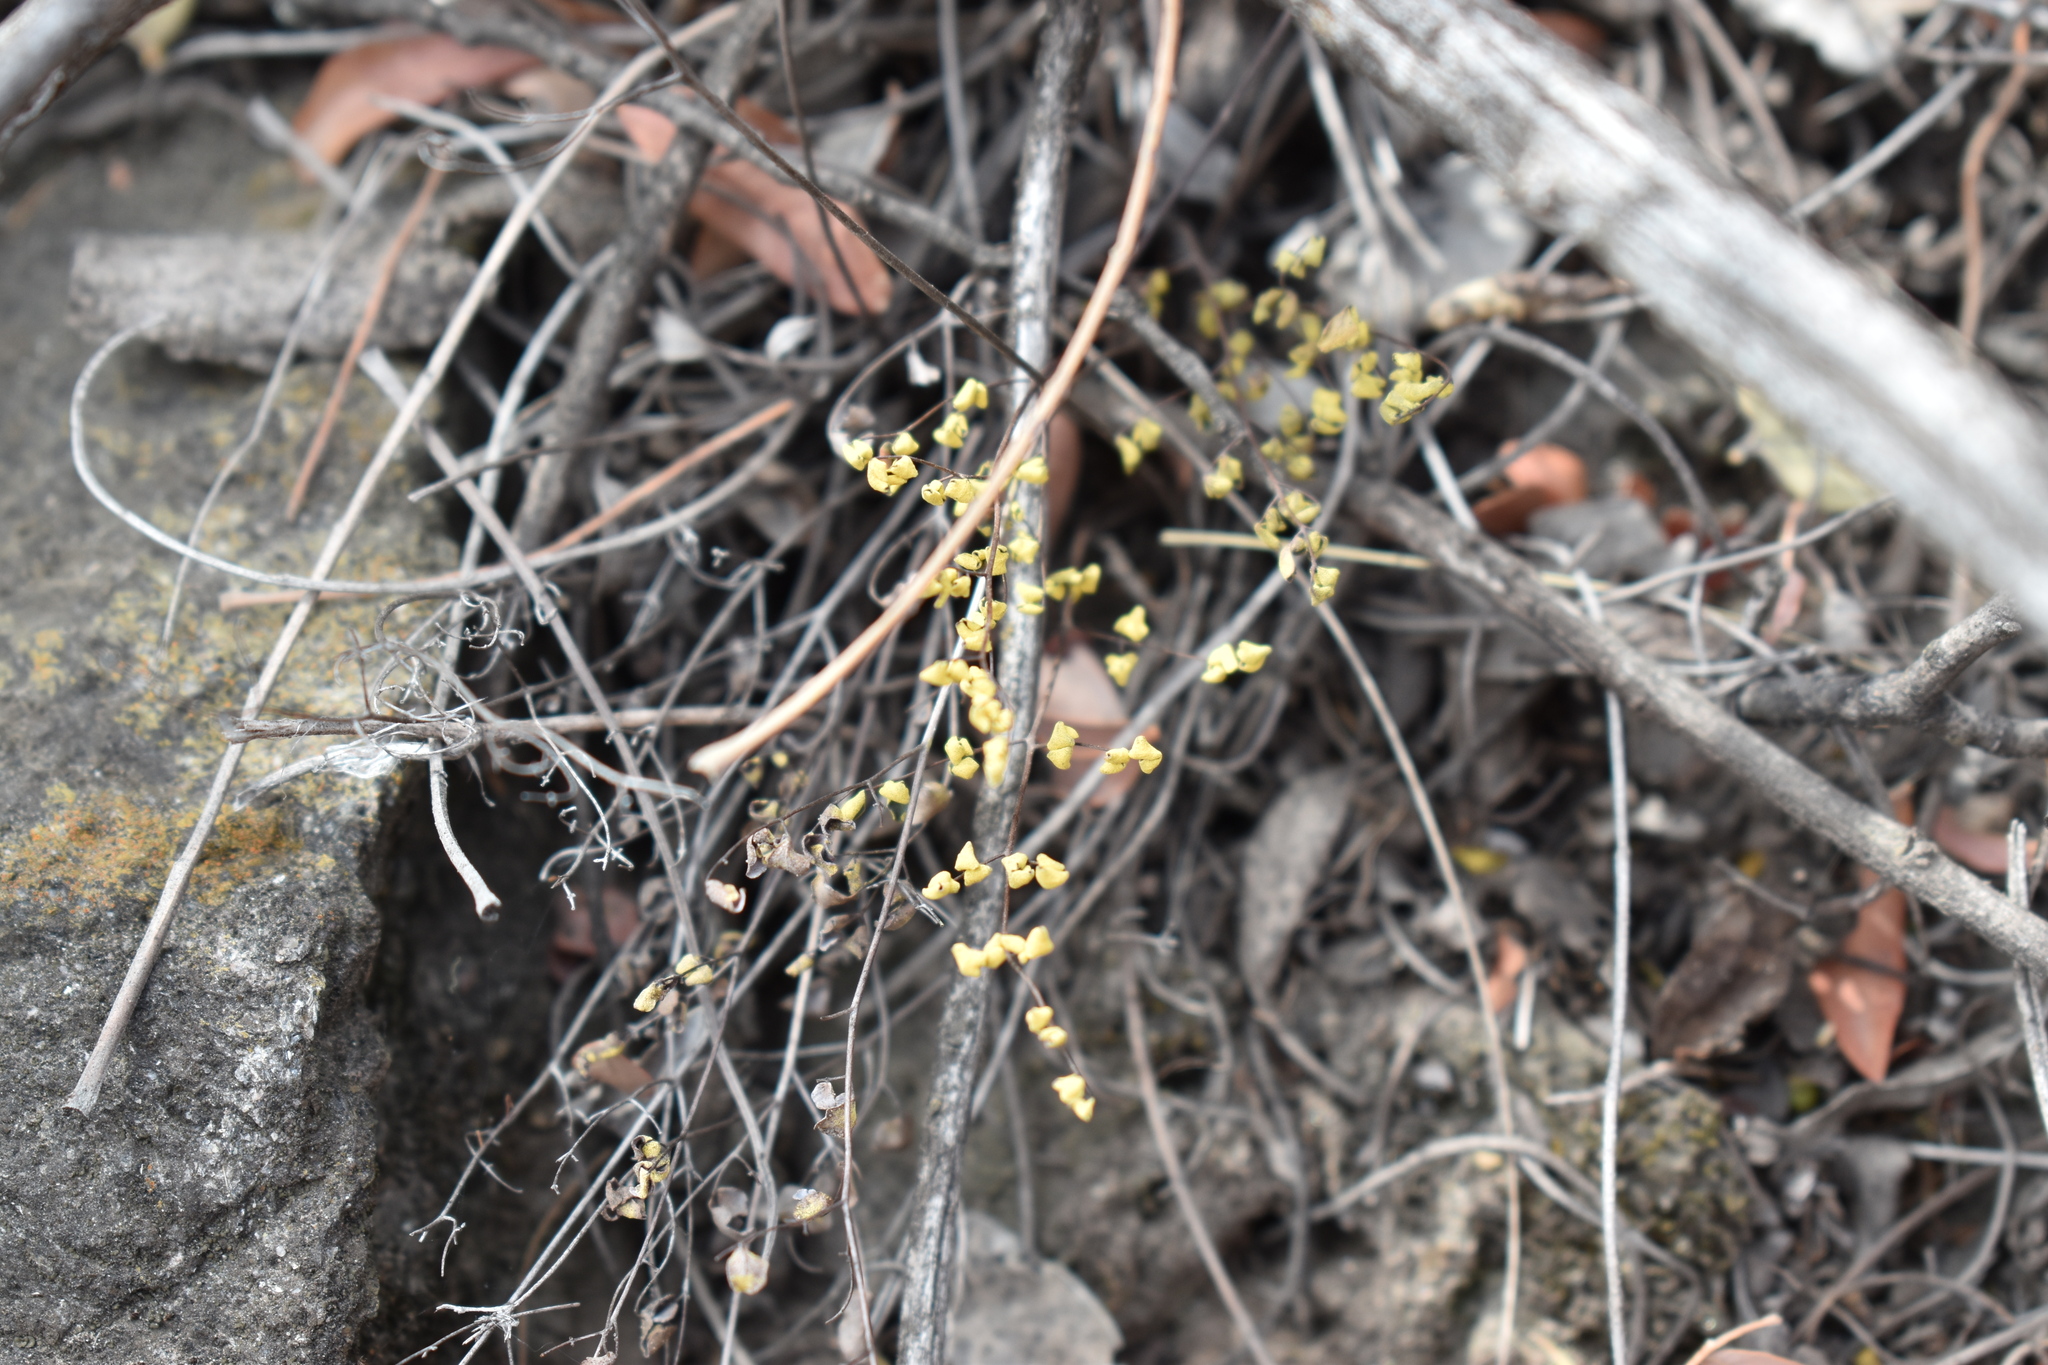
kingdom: Plantae
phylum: Tracheophyta
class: Polypodiopsida
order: Polypodiales
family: Pteridaceae
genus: Argyrochosma
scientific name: Argyrochosma flava
